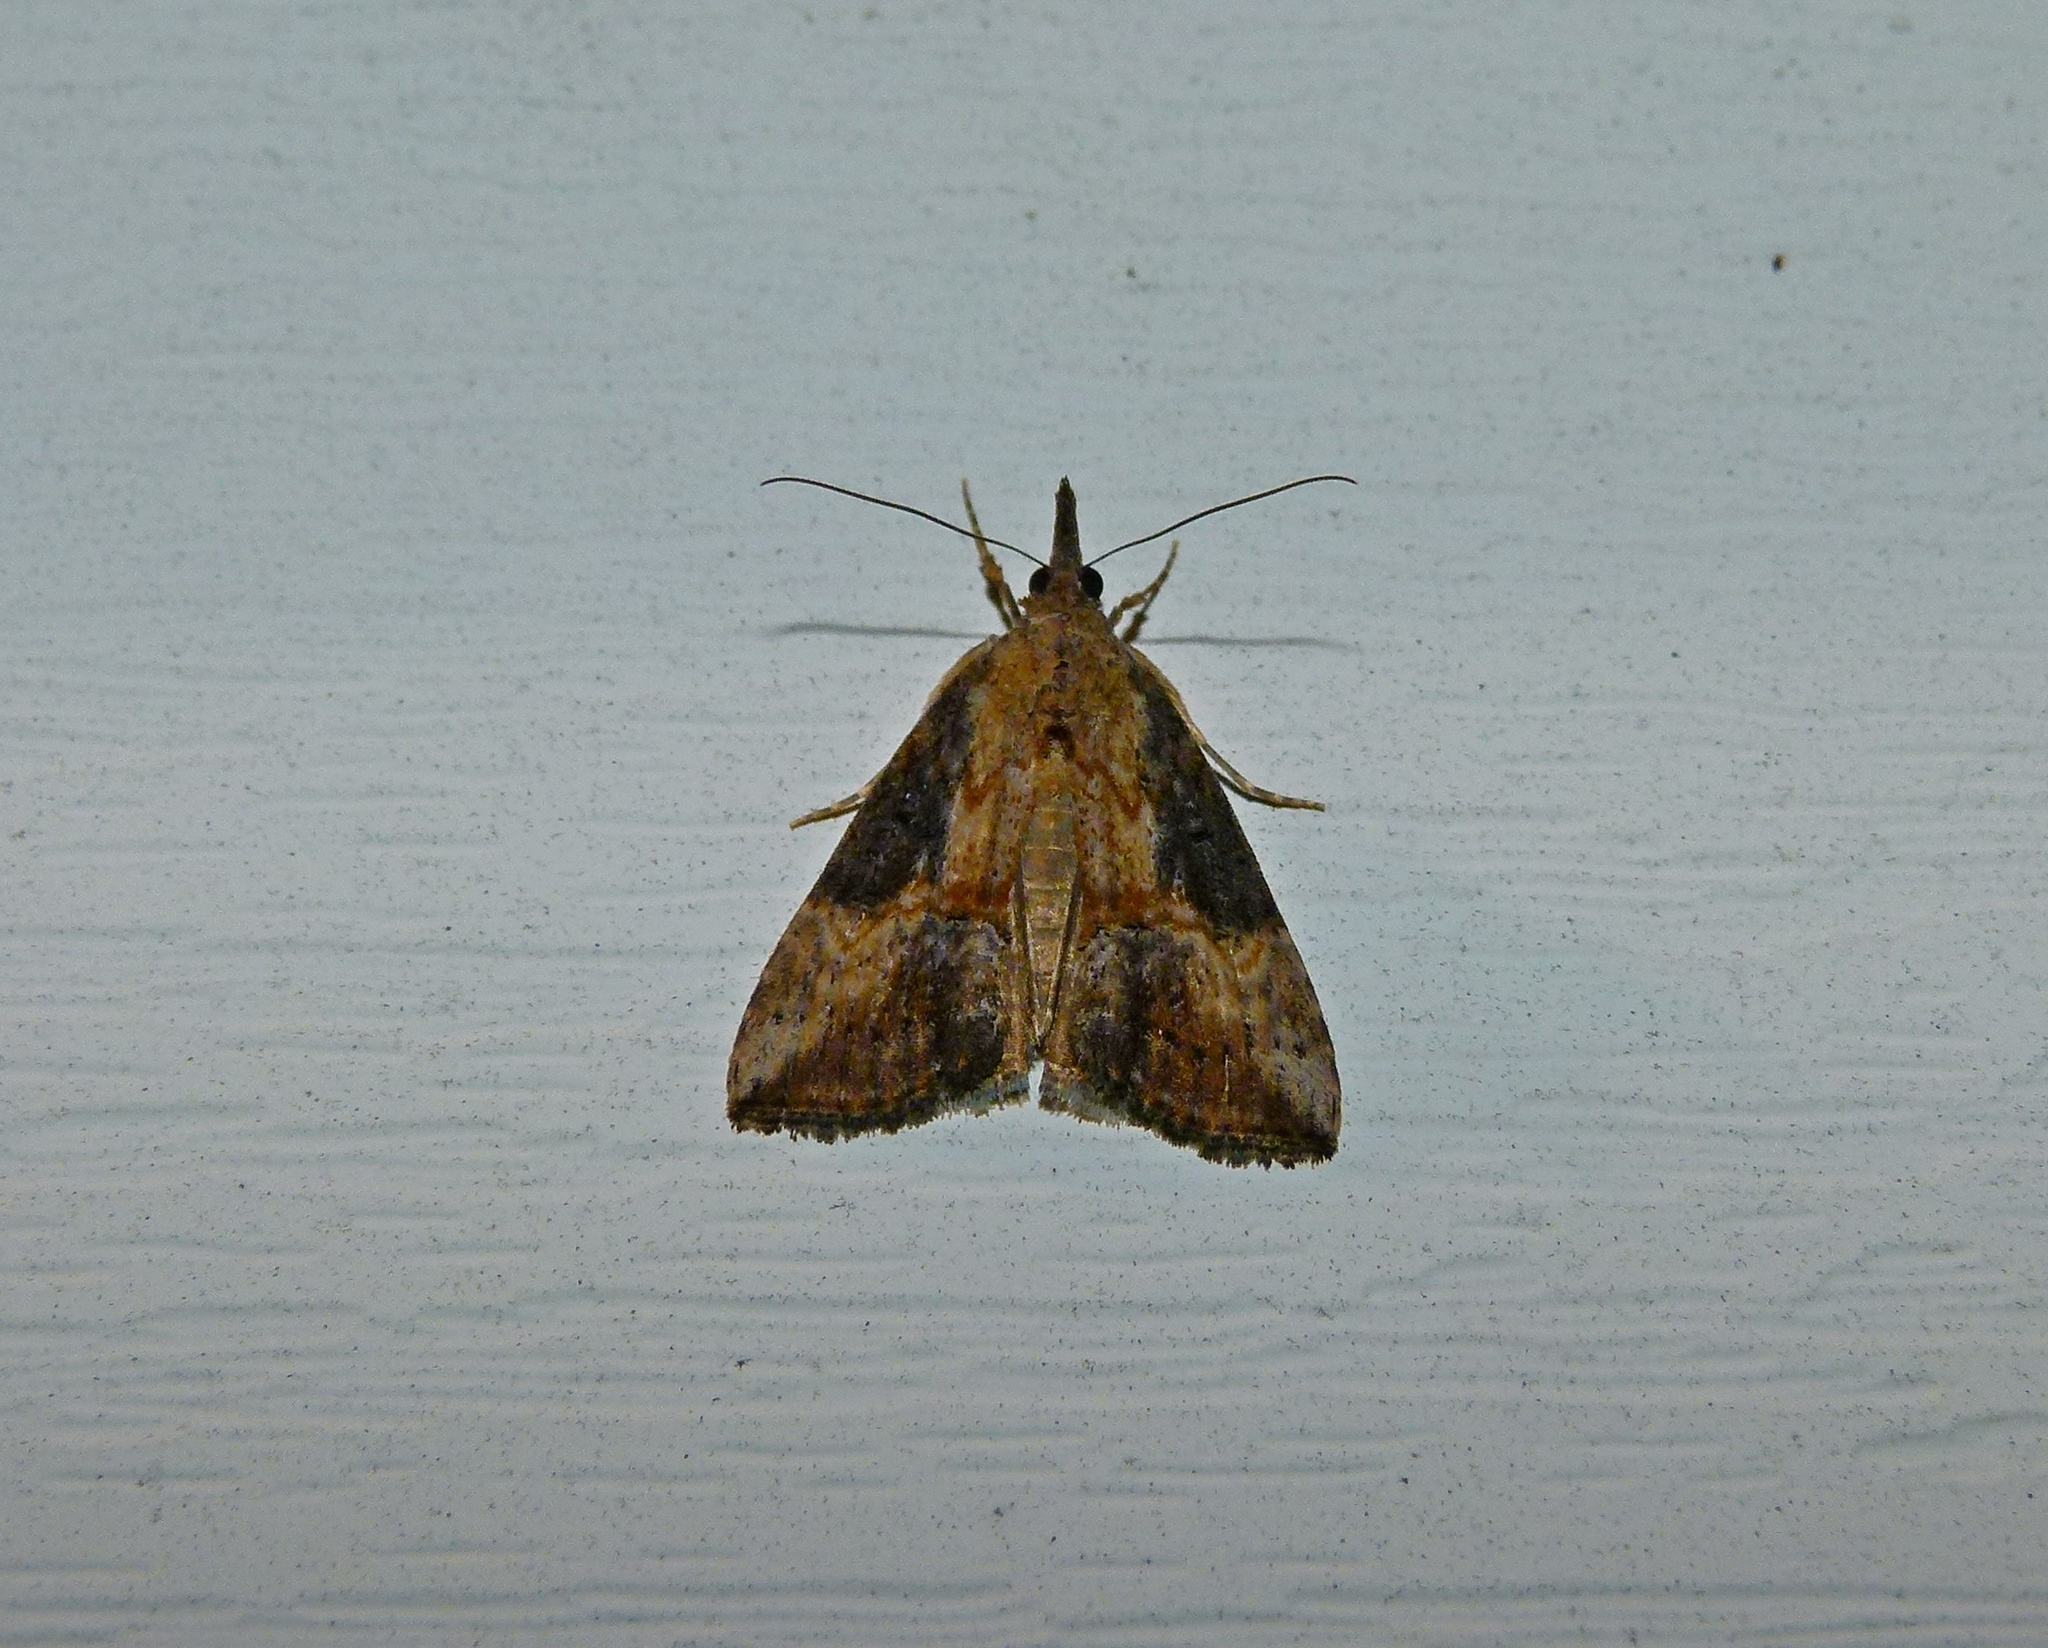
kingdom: Animalia
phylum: Arthropoda
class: Insecta
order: Lepidoptera
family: Erebidae
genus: Hypena
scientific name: Hypena scabra
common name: Green cloverworm
